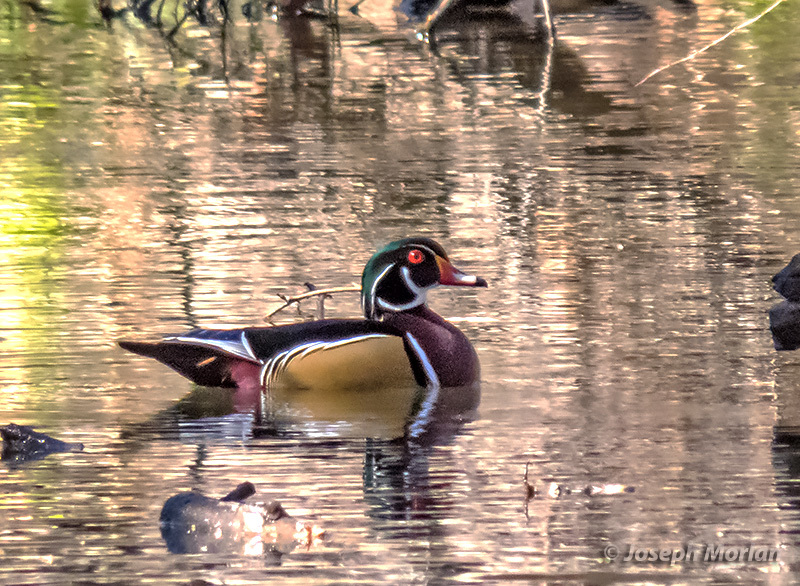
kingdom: Animalia
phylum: Chordata
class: Aves
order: Anseriformes
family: Anatidae
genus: Aix
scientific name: Aix sponsa
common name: Wood duck
